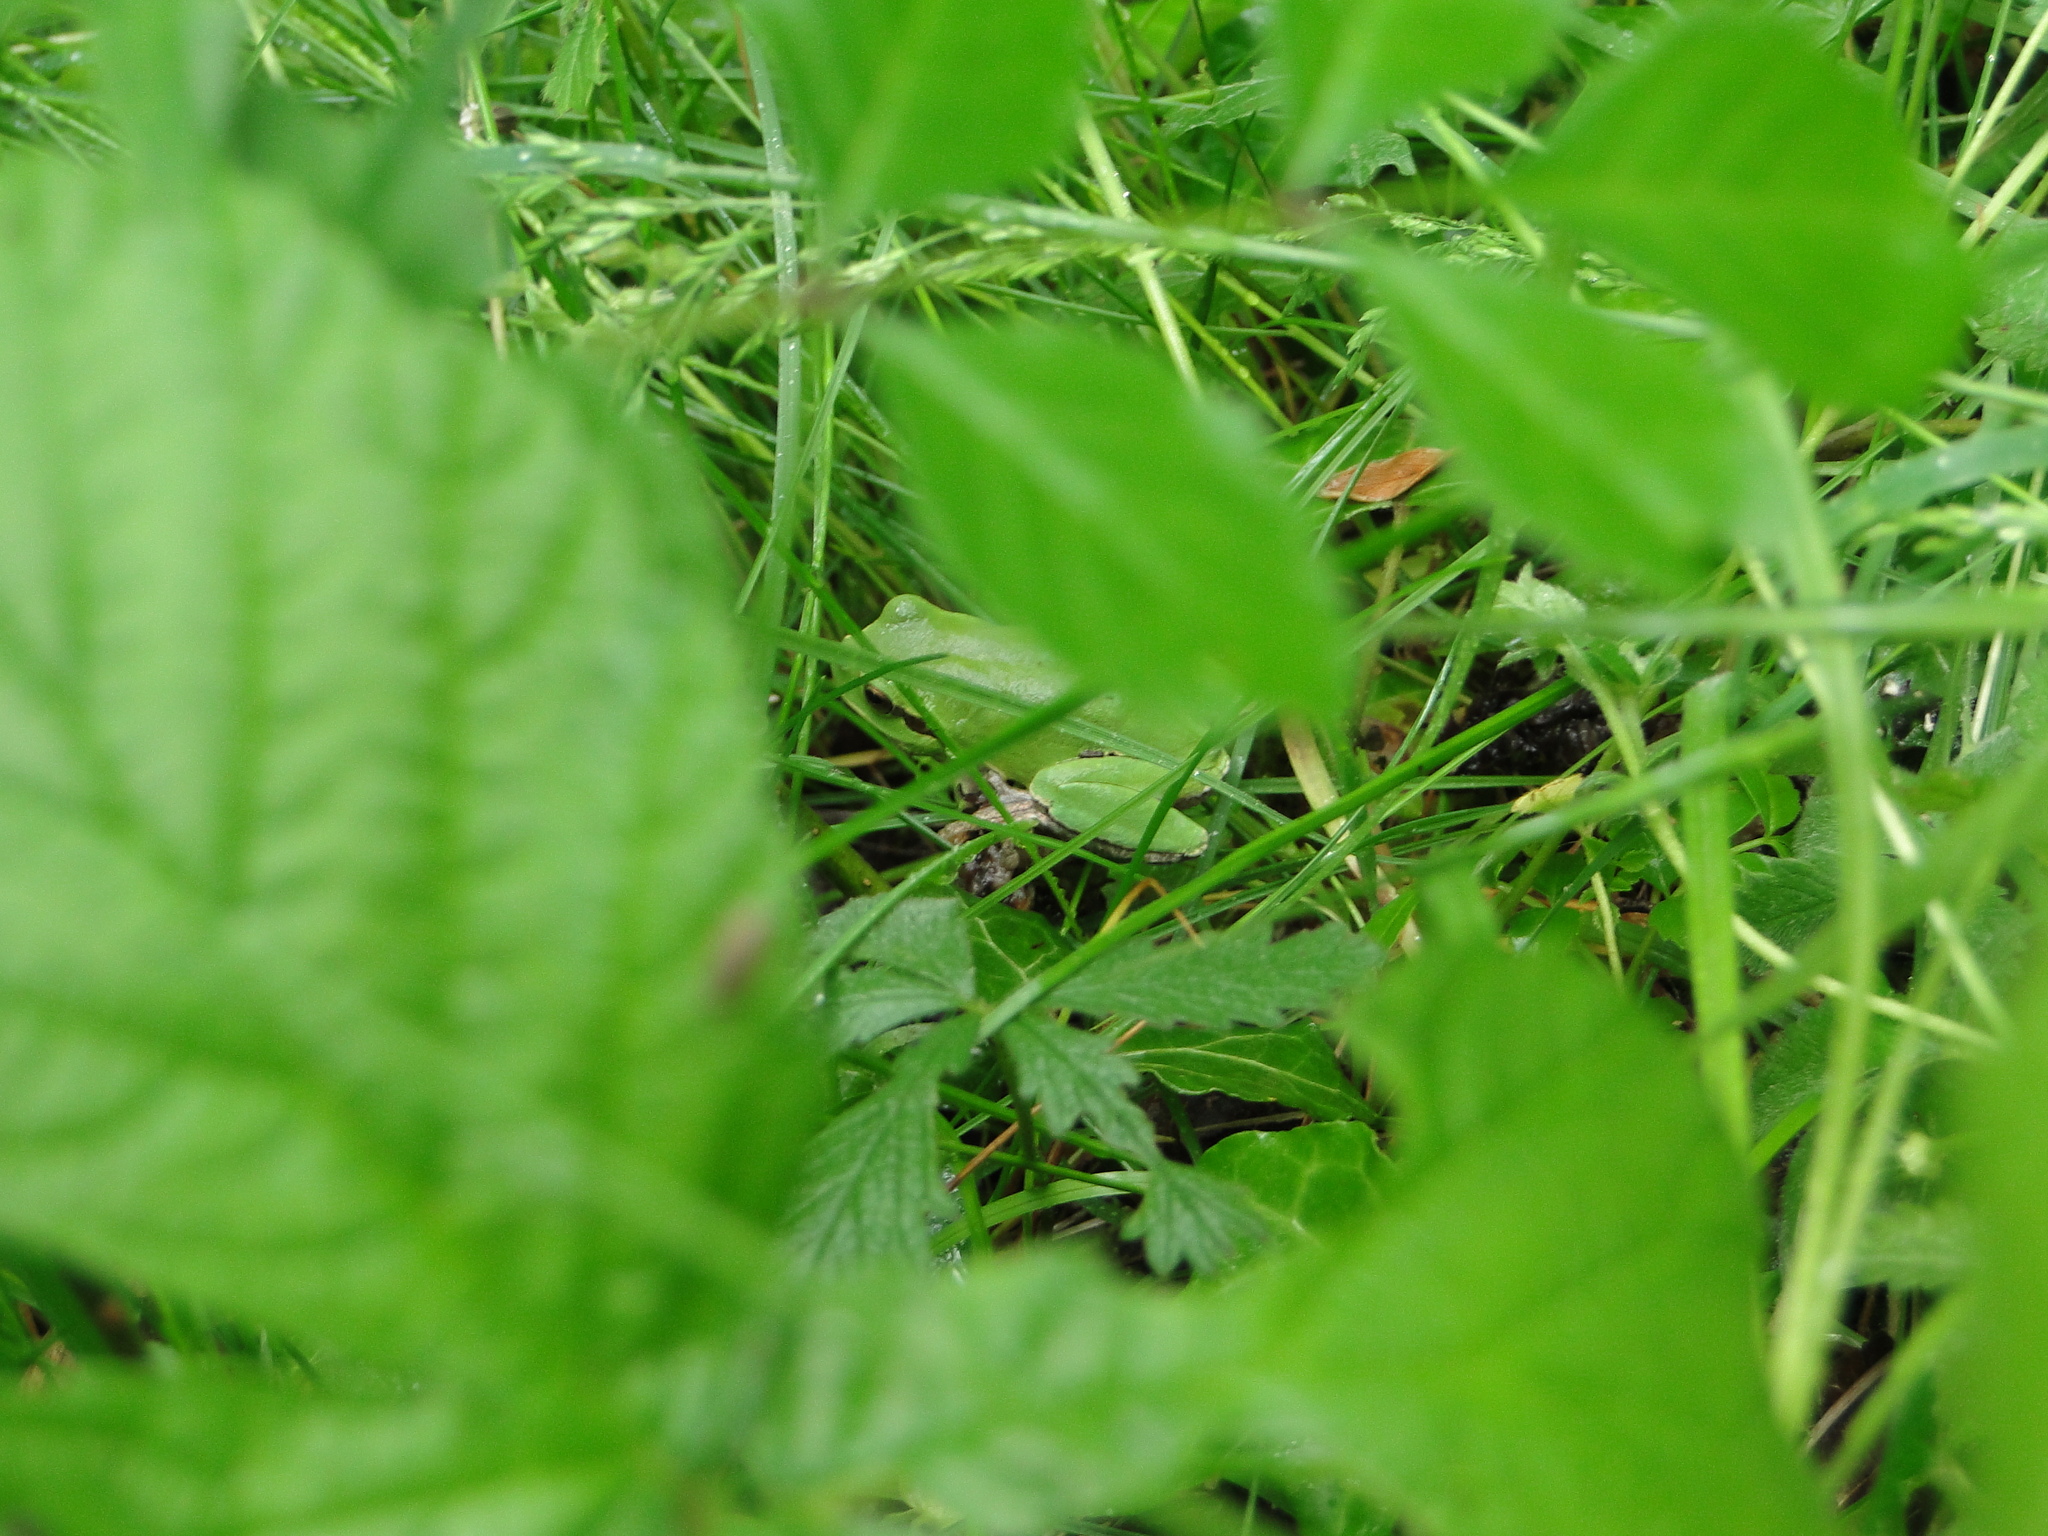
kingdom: Animalia
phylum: Chordata
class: Amphibia
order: Anura
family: Hylidae
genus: Hyla
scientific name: Hyla intermedia
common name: Italian tree frog
